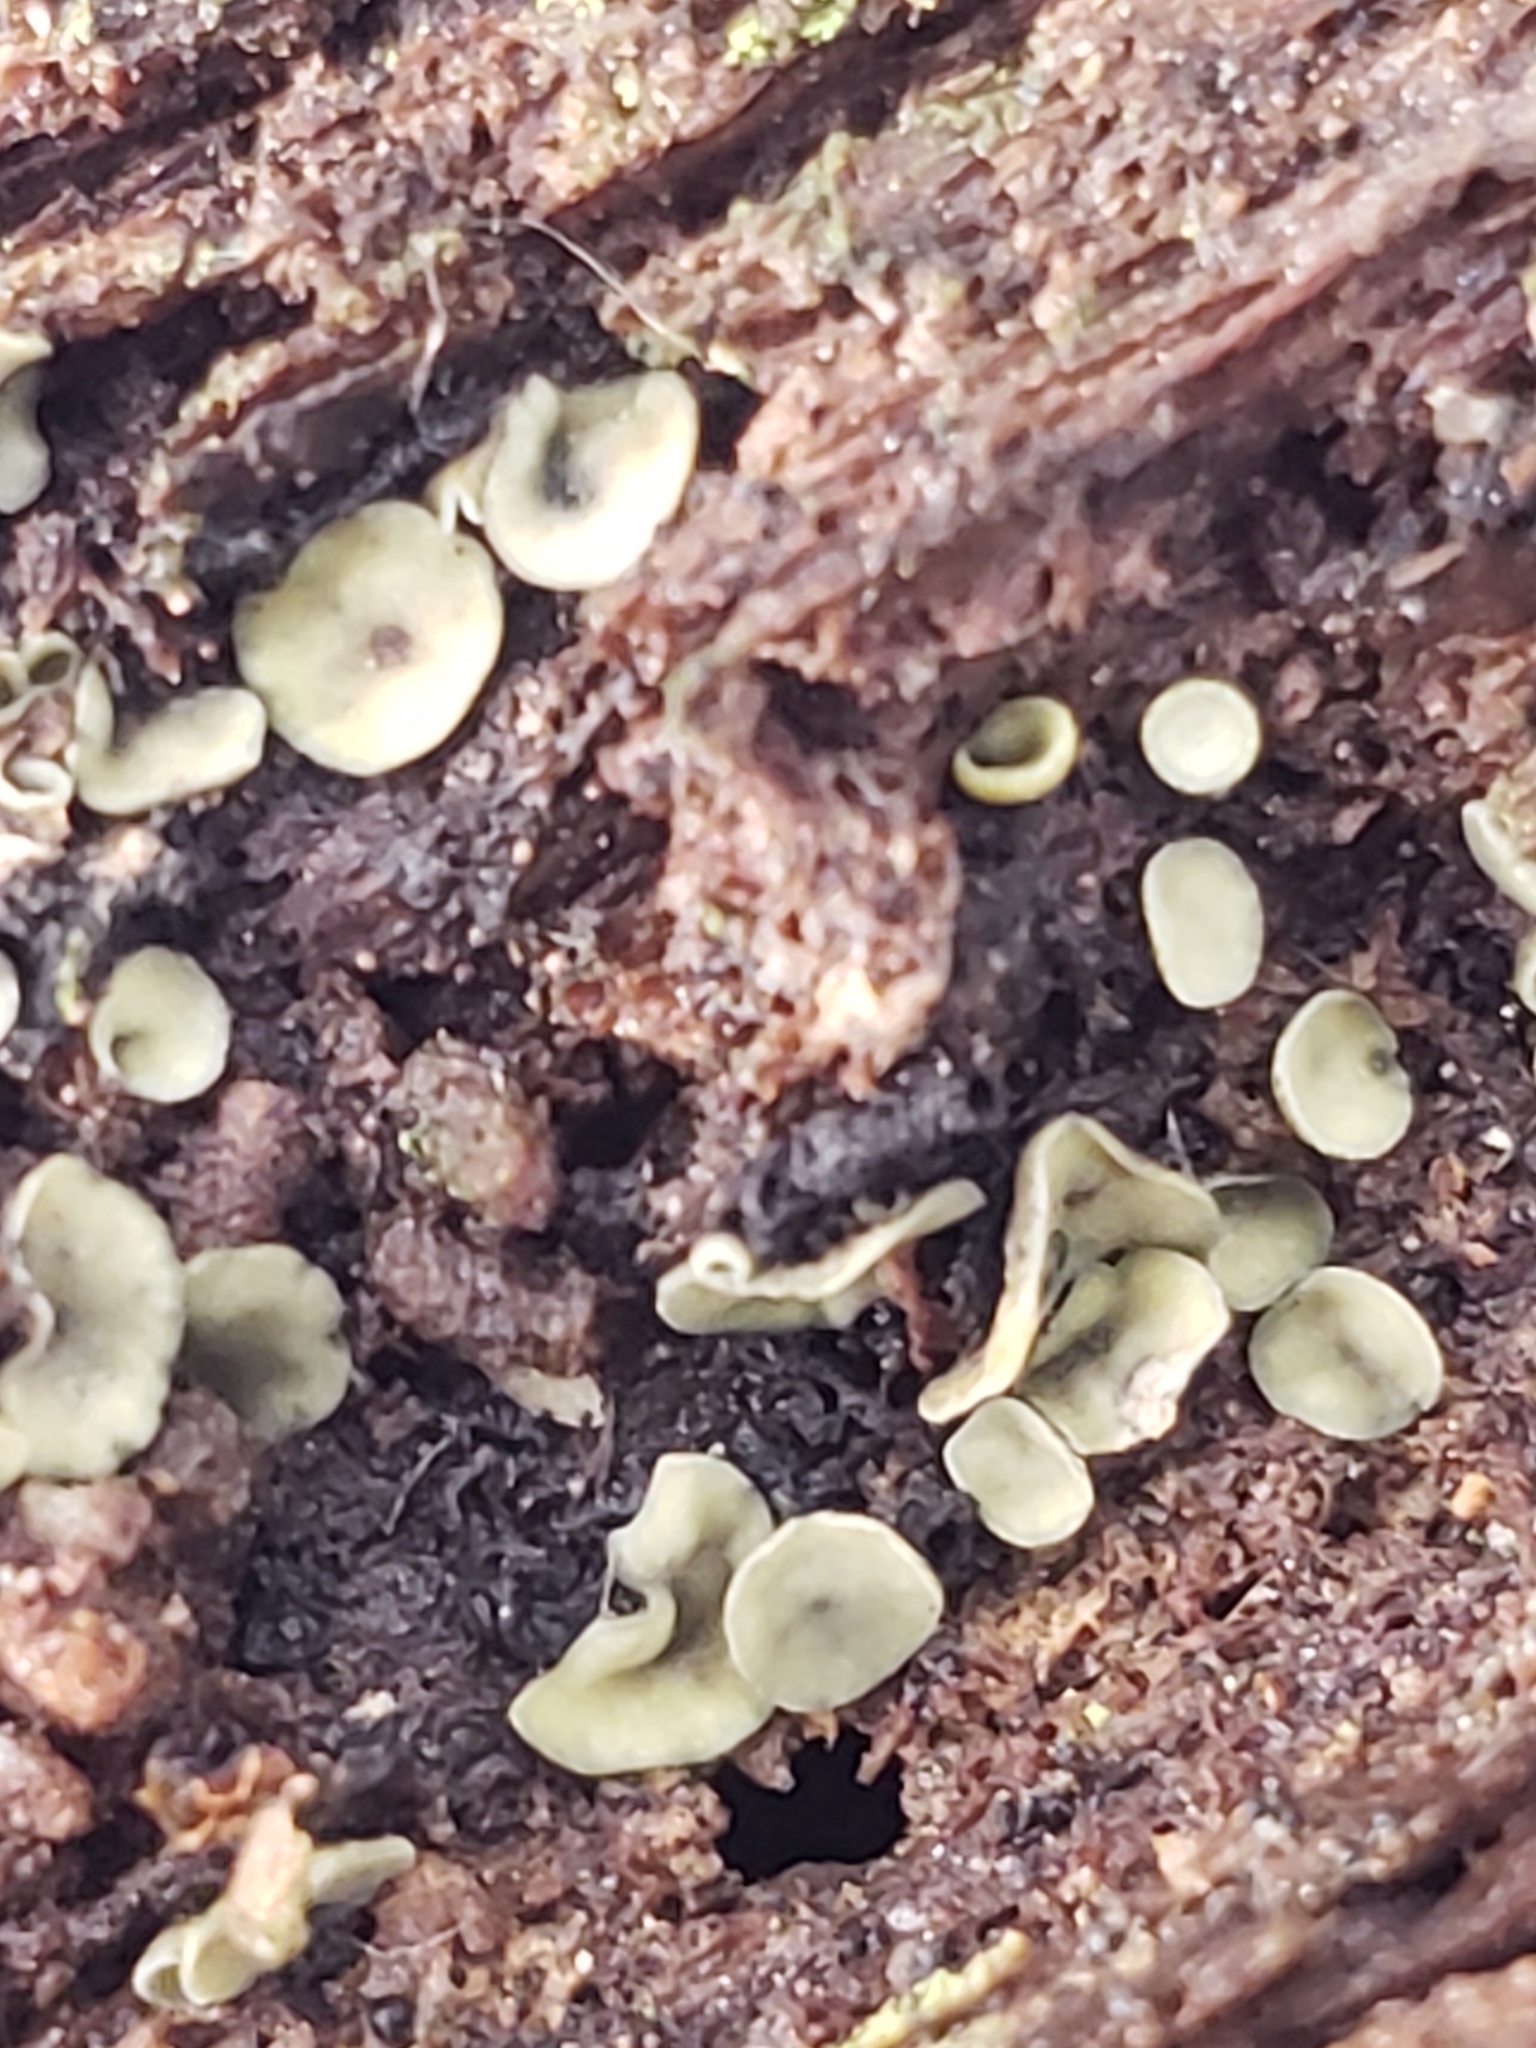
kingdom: Fungi
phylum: Ascomycota
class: Leotiomycetes
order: Helotiales
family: Chlorospleniaceae
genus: Chlorosplenium
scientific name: Chlorosplenium chlora
